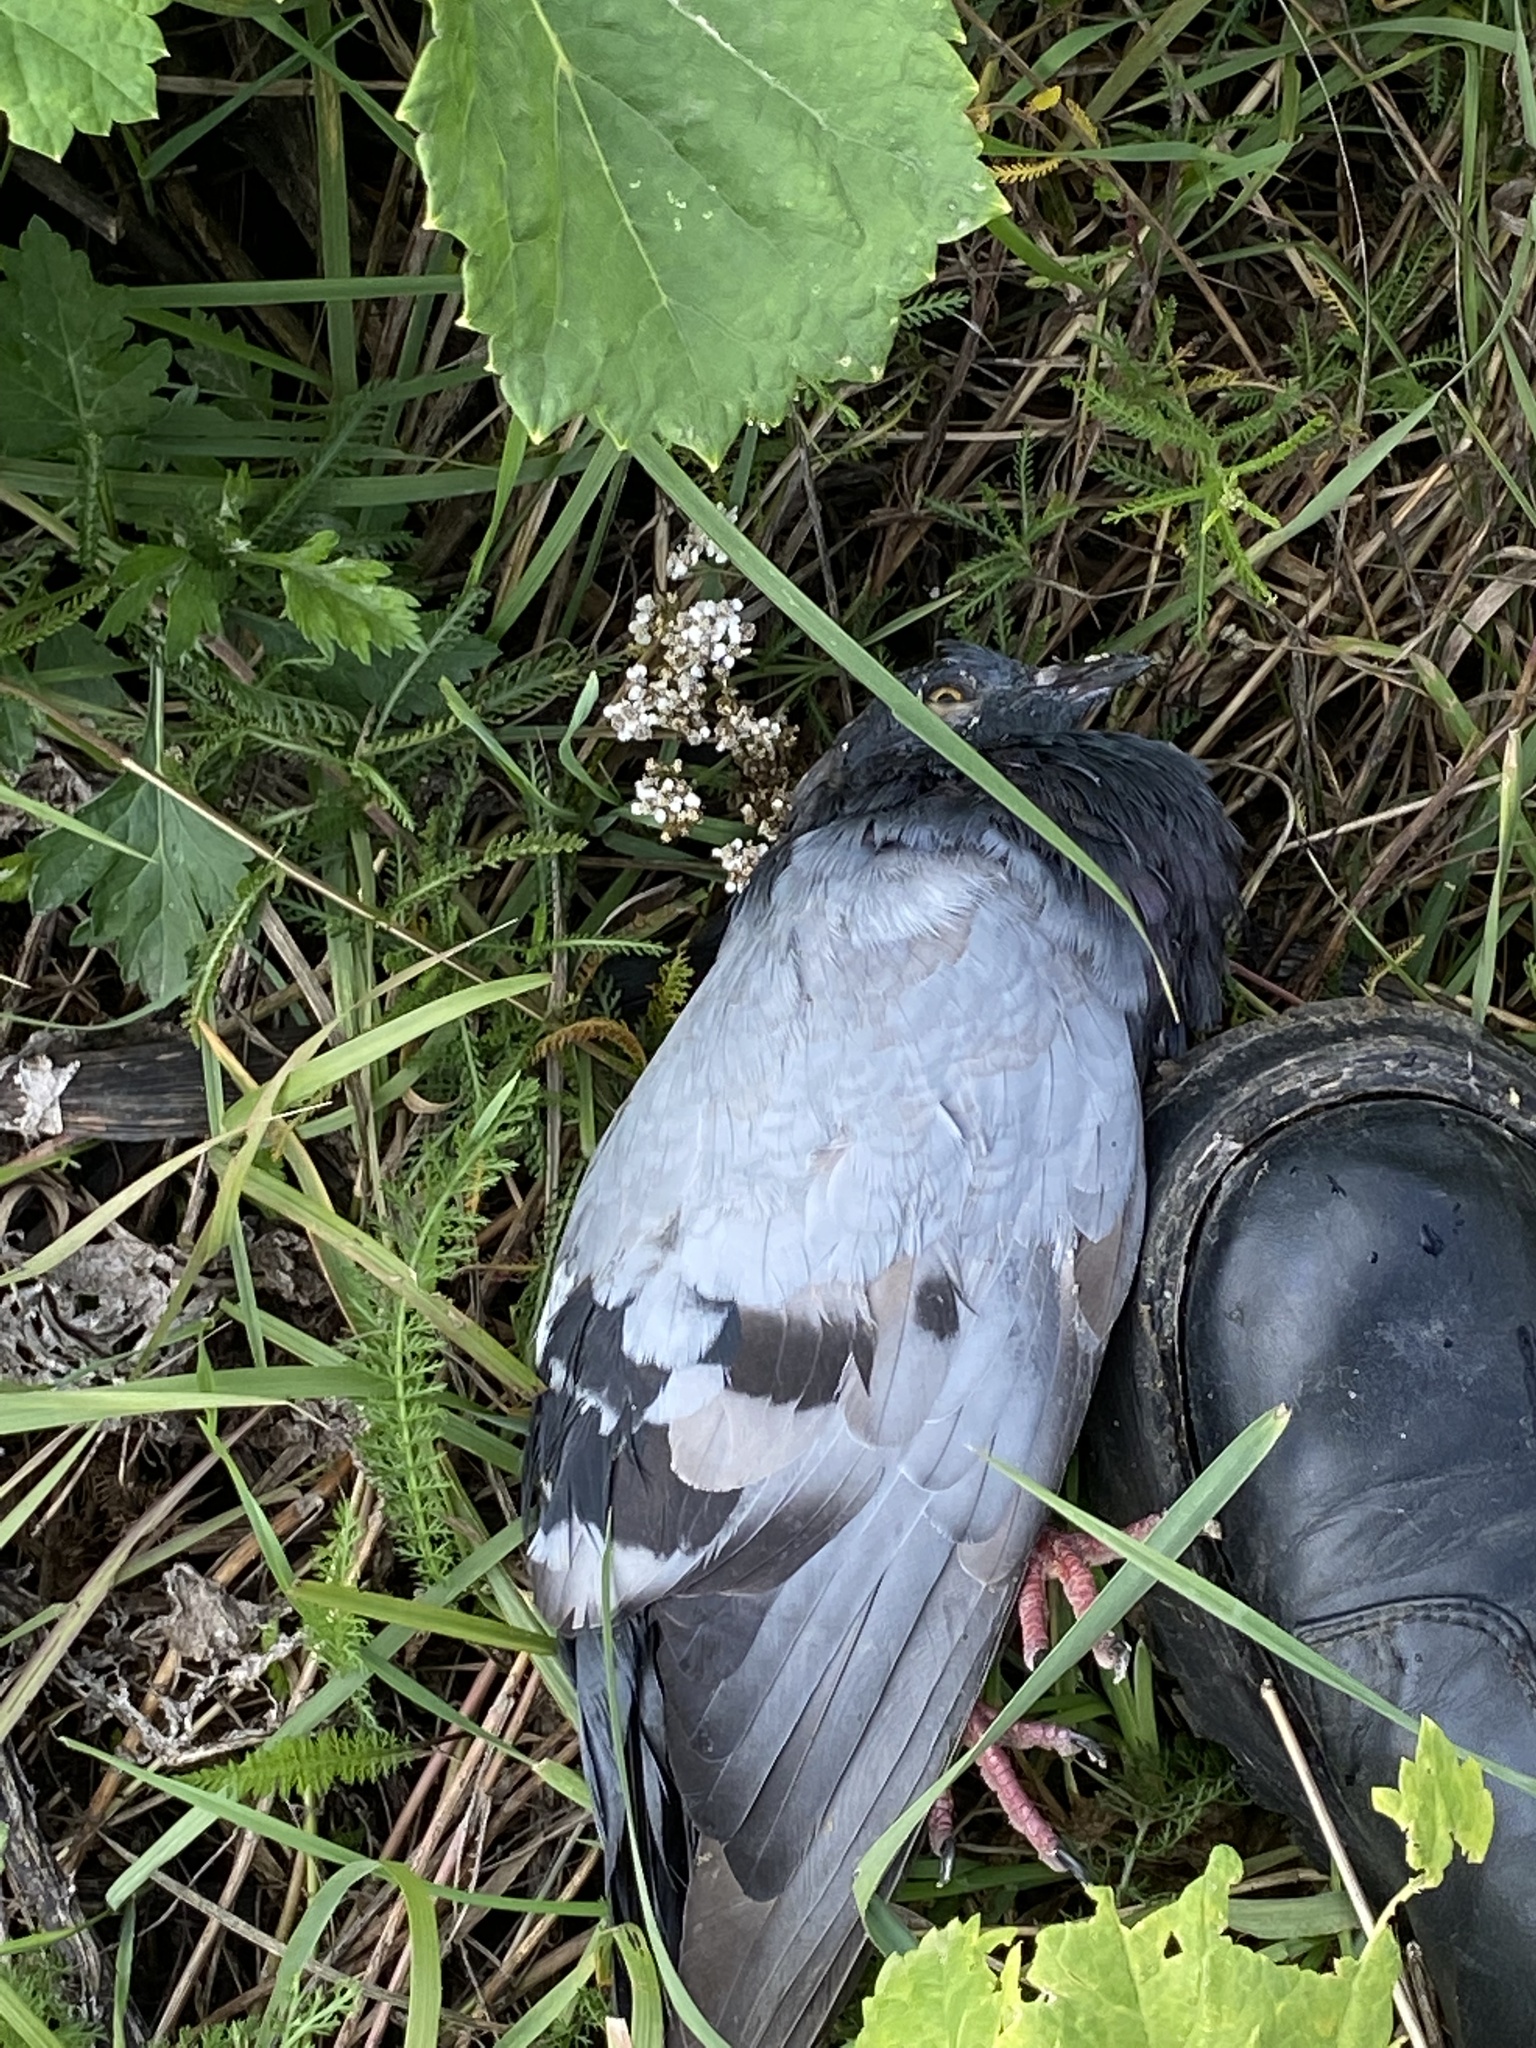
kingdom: Animalia
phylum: Chordata
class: Aves
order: Columbiformes
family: Columbidae
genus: Columba
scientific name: Columba livia
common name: Rock pigeon
